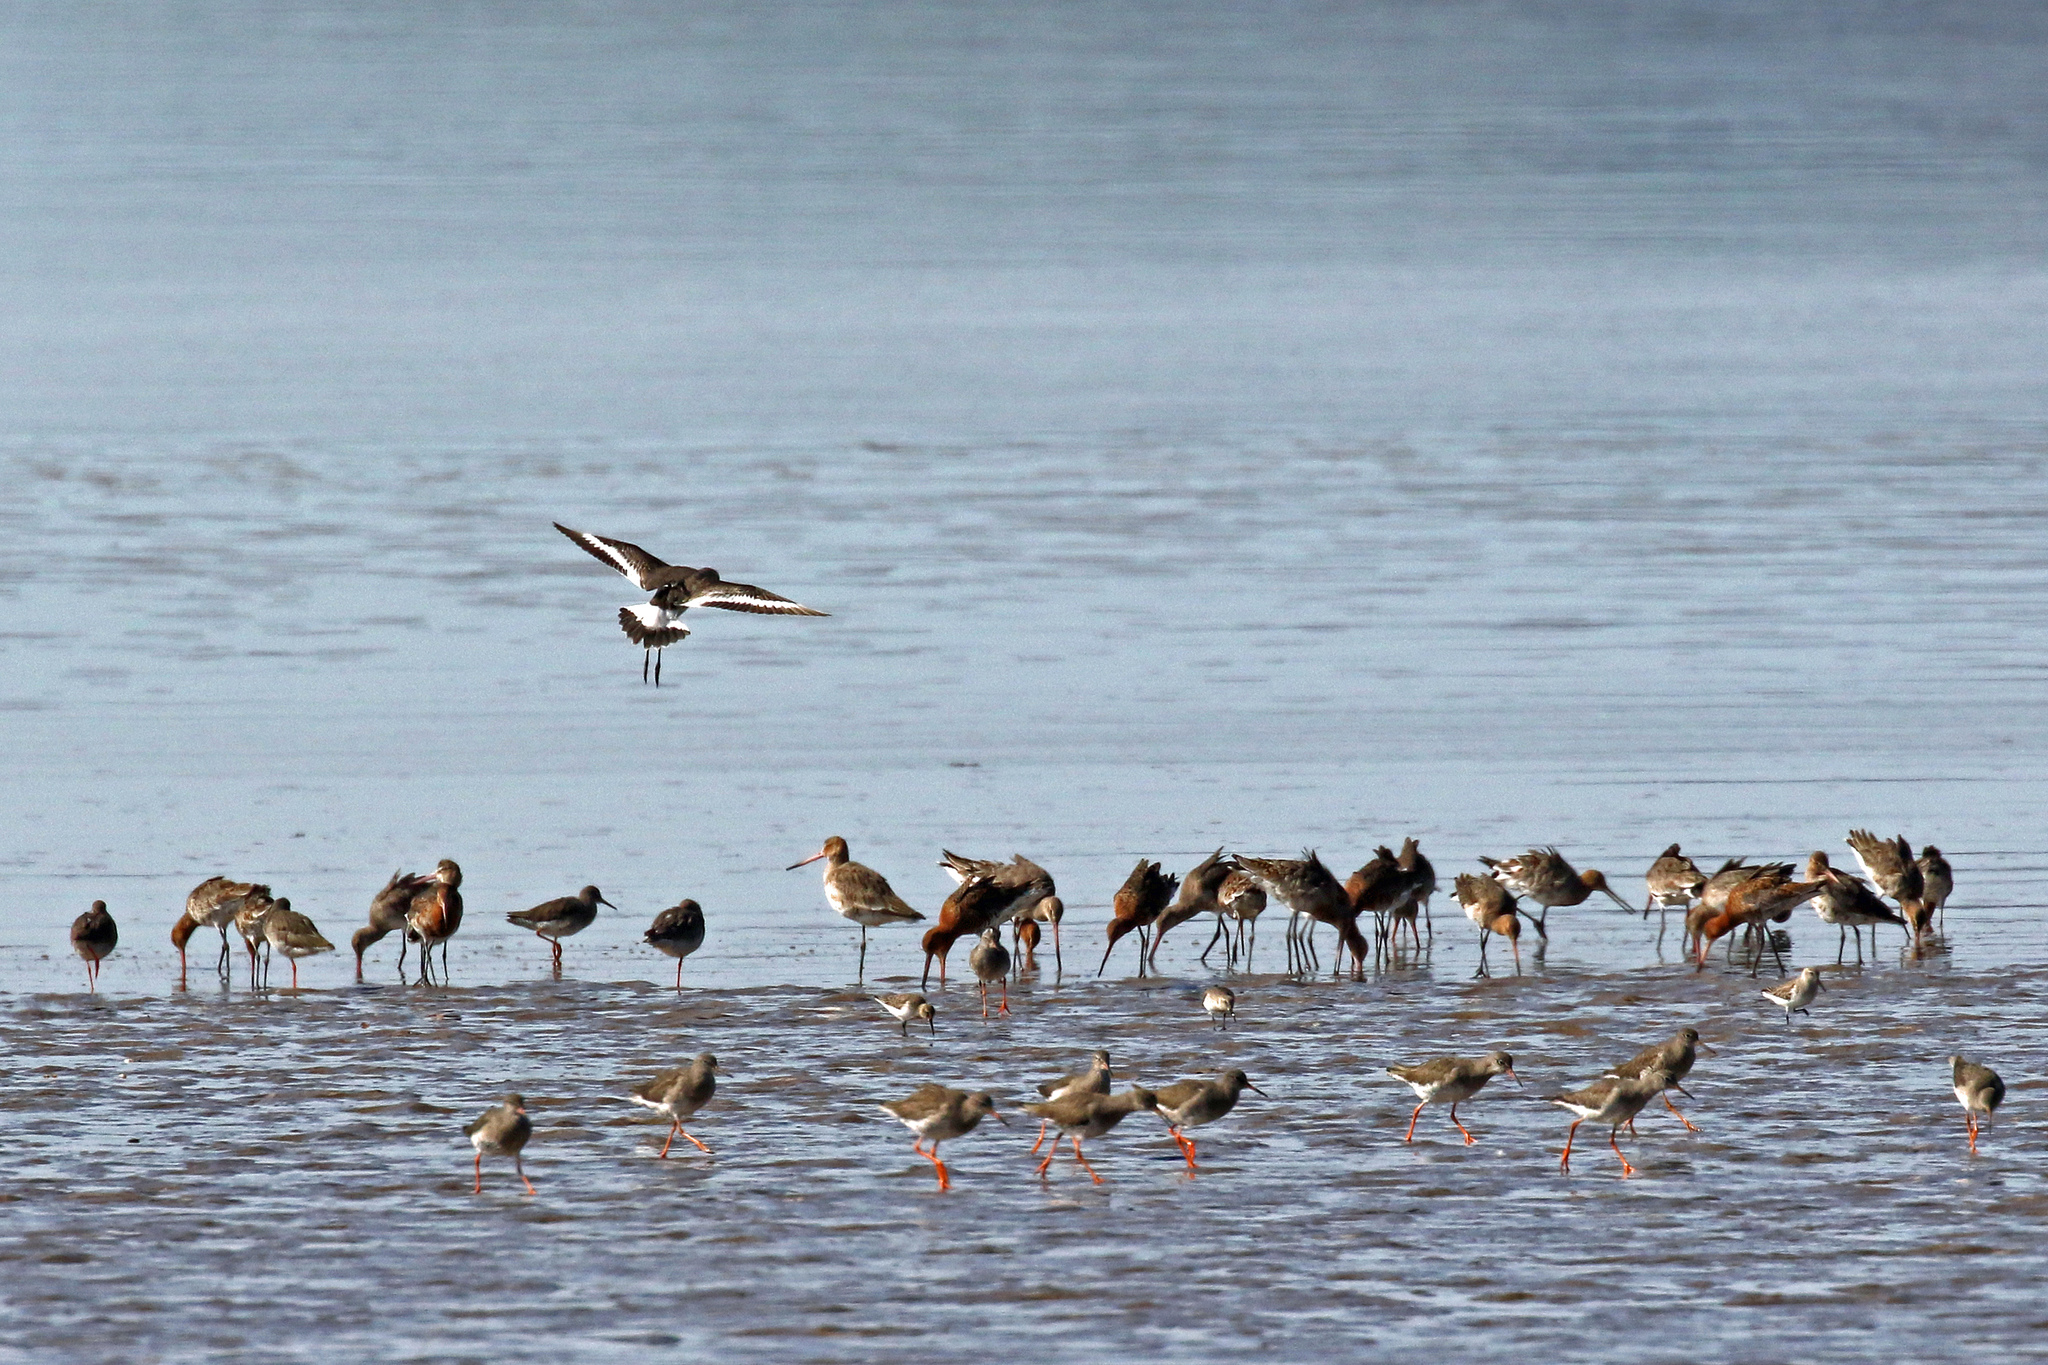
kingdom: Animalia
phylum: Chordata
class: Aves
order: Charadriiformes
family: Scolopacidae
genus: Limosa
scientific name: Limosa limosa
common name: Black-tailed godwit
